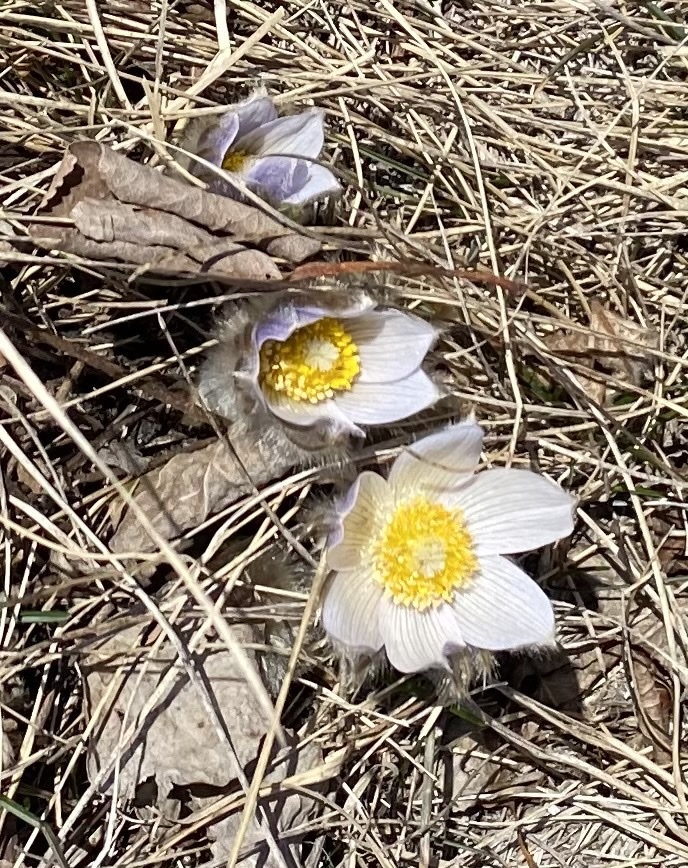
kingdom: Plantae
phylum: Tracheophyta
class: Magnoliopsida
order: Ranunculales
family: Ranunculaceae
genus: Pulsatilla
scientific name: Pulsatilla nuttalliana
